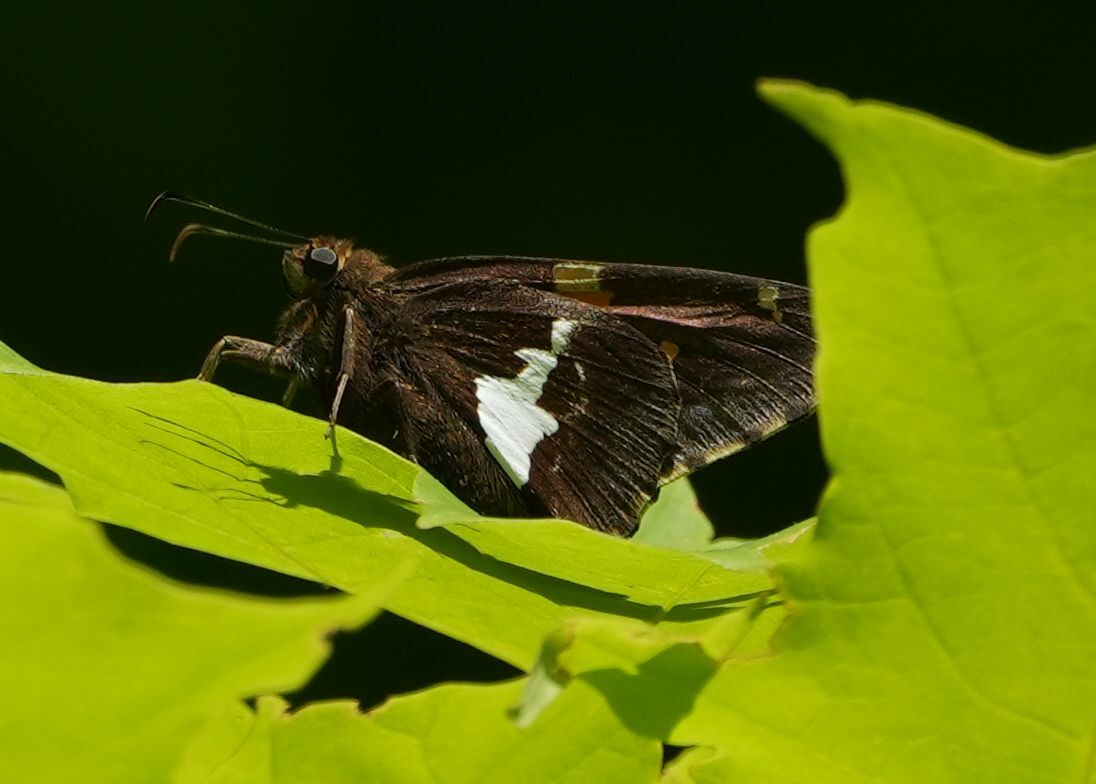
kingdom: Animalia
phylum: Arthropoda
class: Insecta
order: Lepidoptera
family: Hesperiidae
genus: Epargyreus
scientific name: Epargyreus clarus
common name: Silver-spotted skipper
